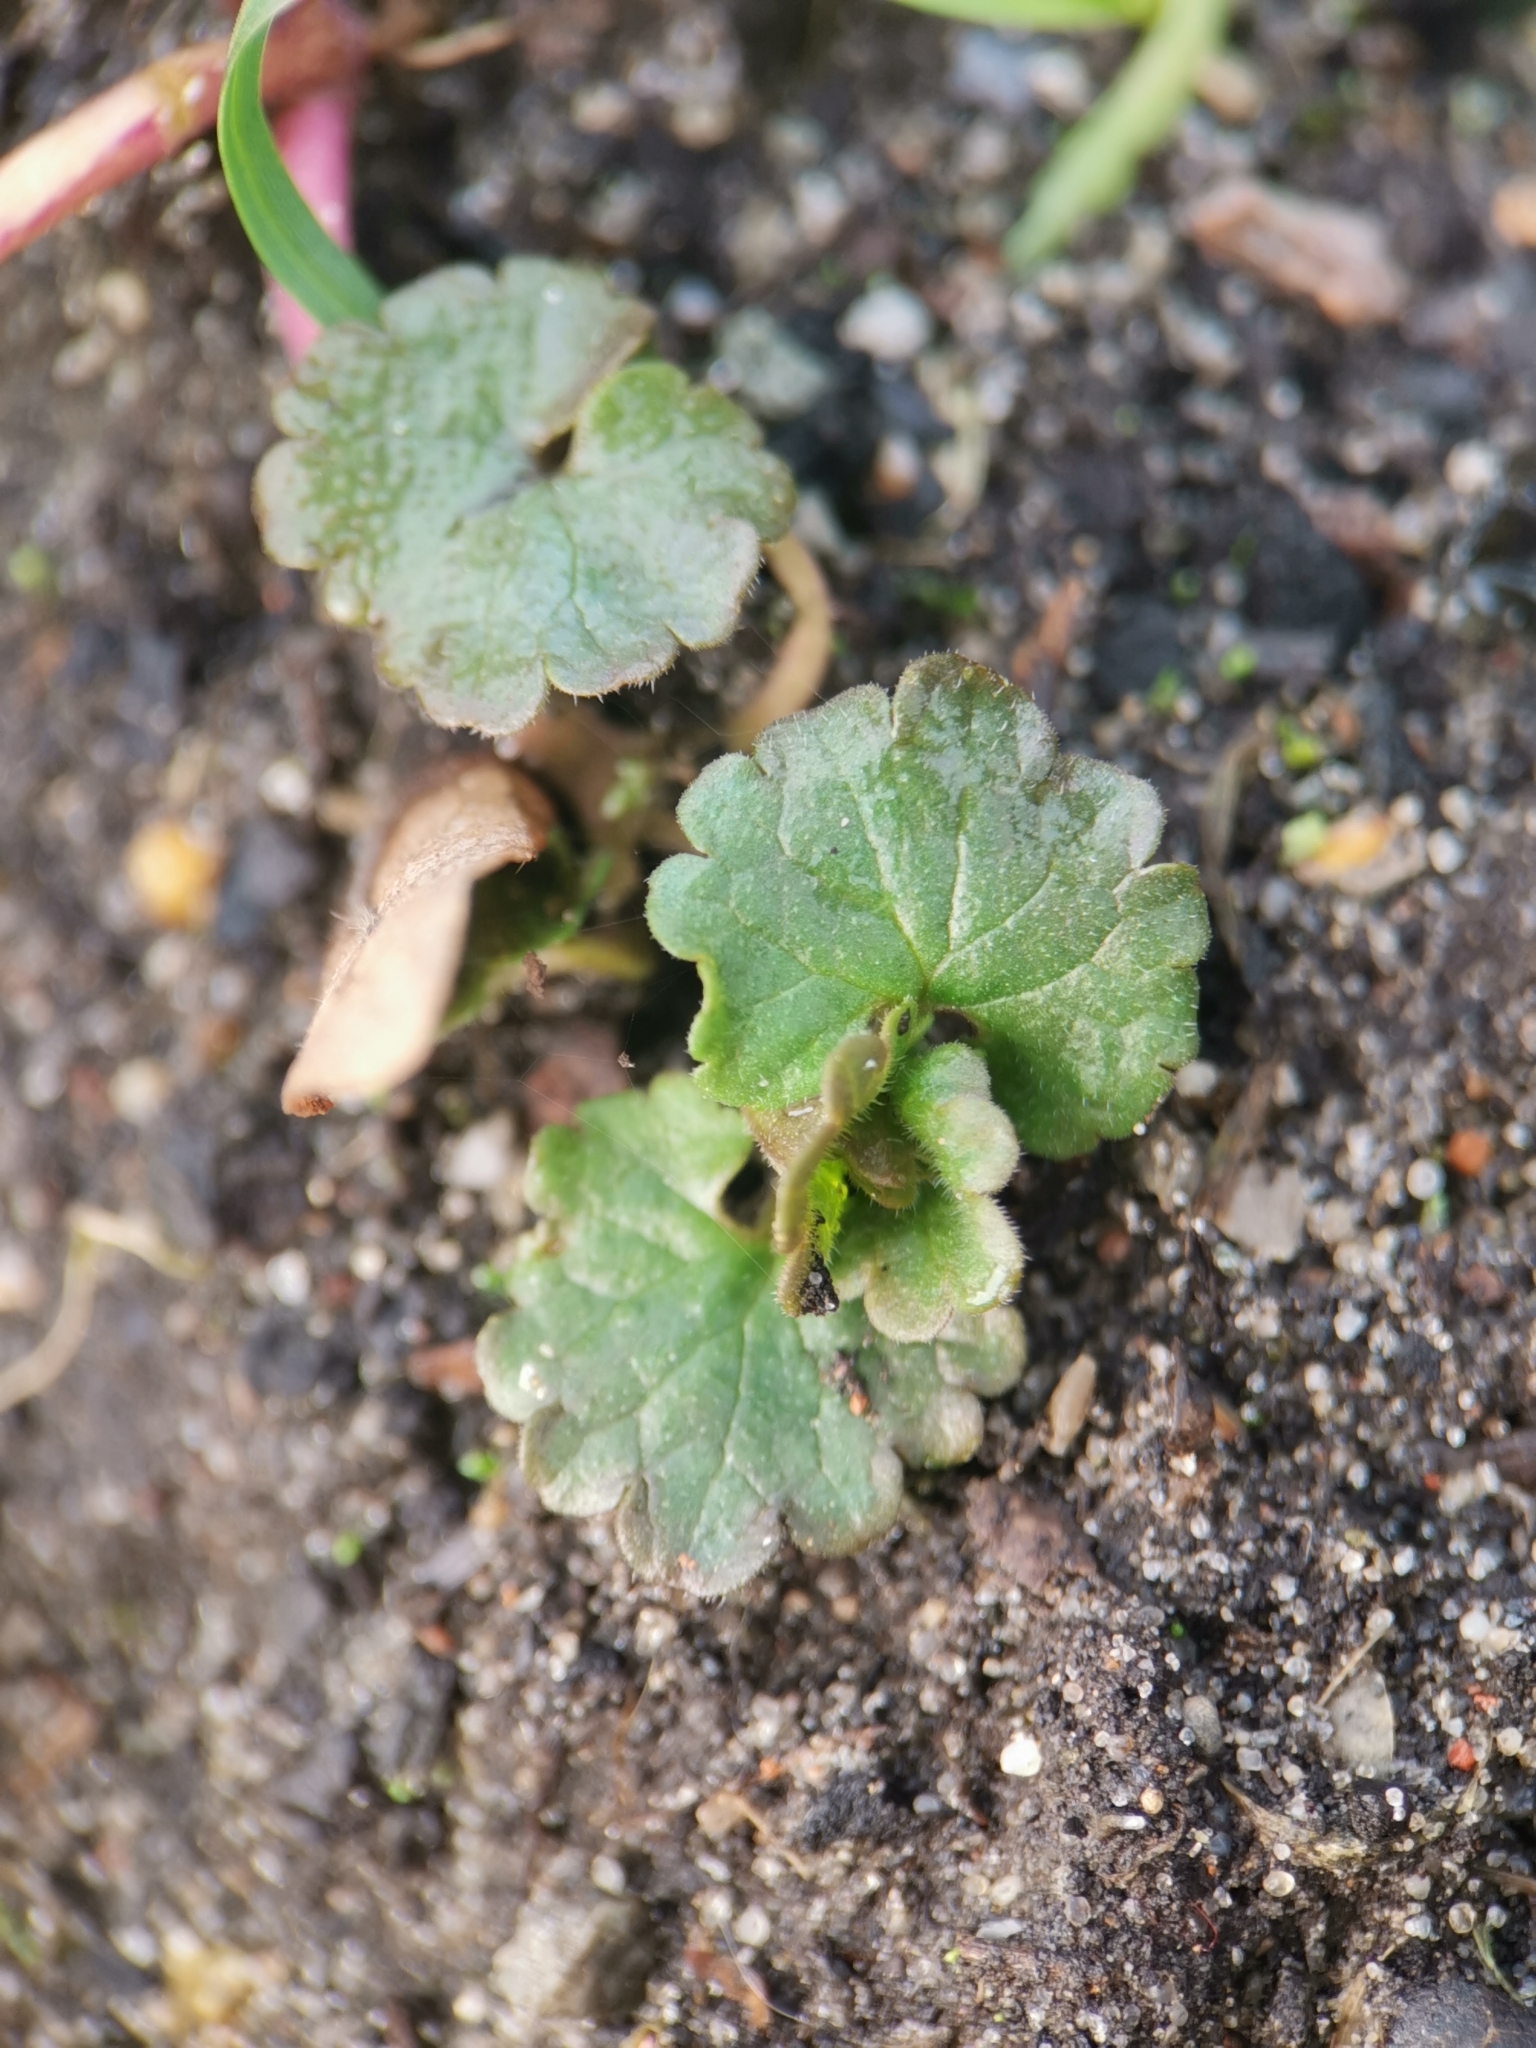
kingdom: Plantae
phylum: Tracheophyta
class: Magnoliopsida
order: Lamiales
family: Lamiaceae
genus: Glechoma
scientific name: Glechoma hederacea
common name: Ground ivy
